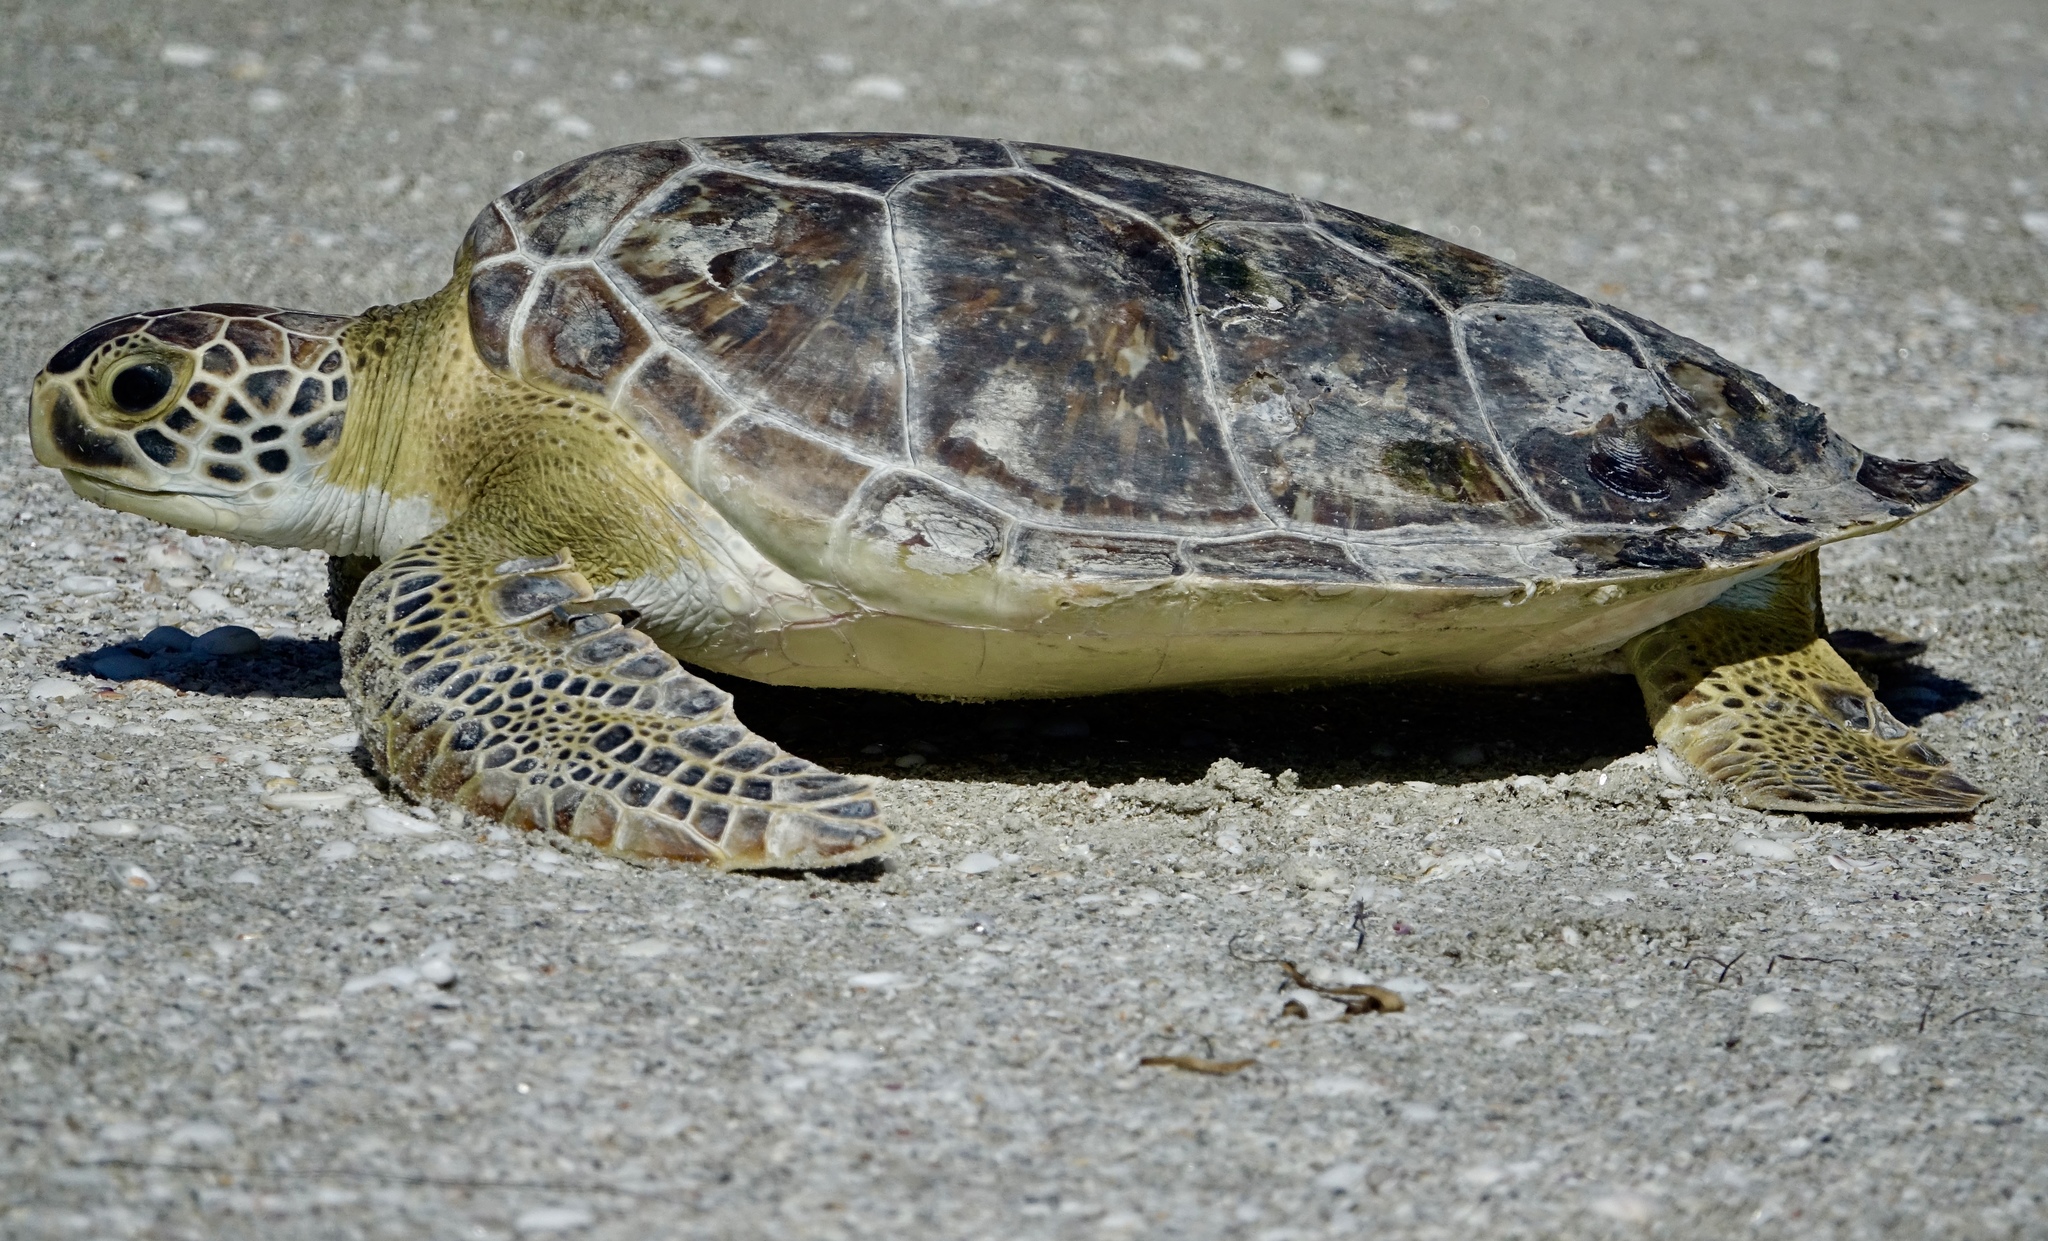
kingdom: Animalia
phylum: Chordata
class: Testudines
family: Cheloniidae
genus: Chelonia
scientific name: Chelonia mydas
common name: Green turtle
